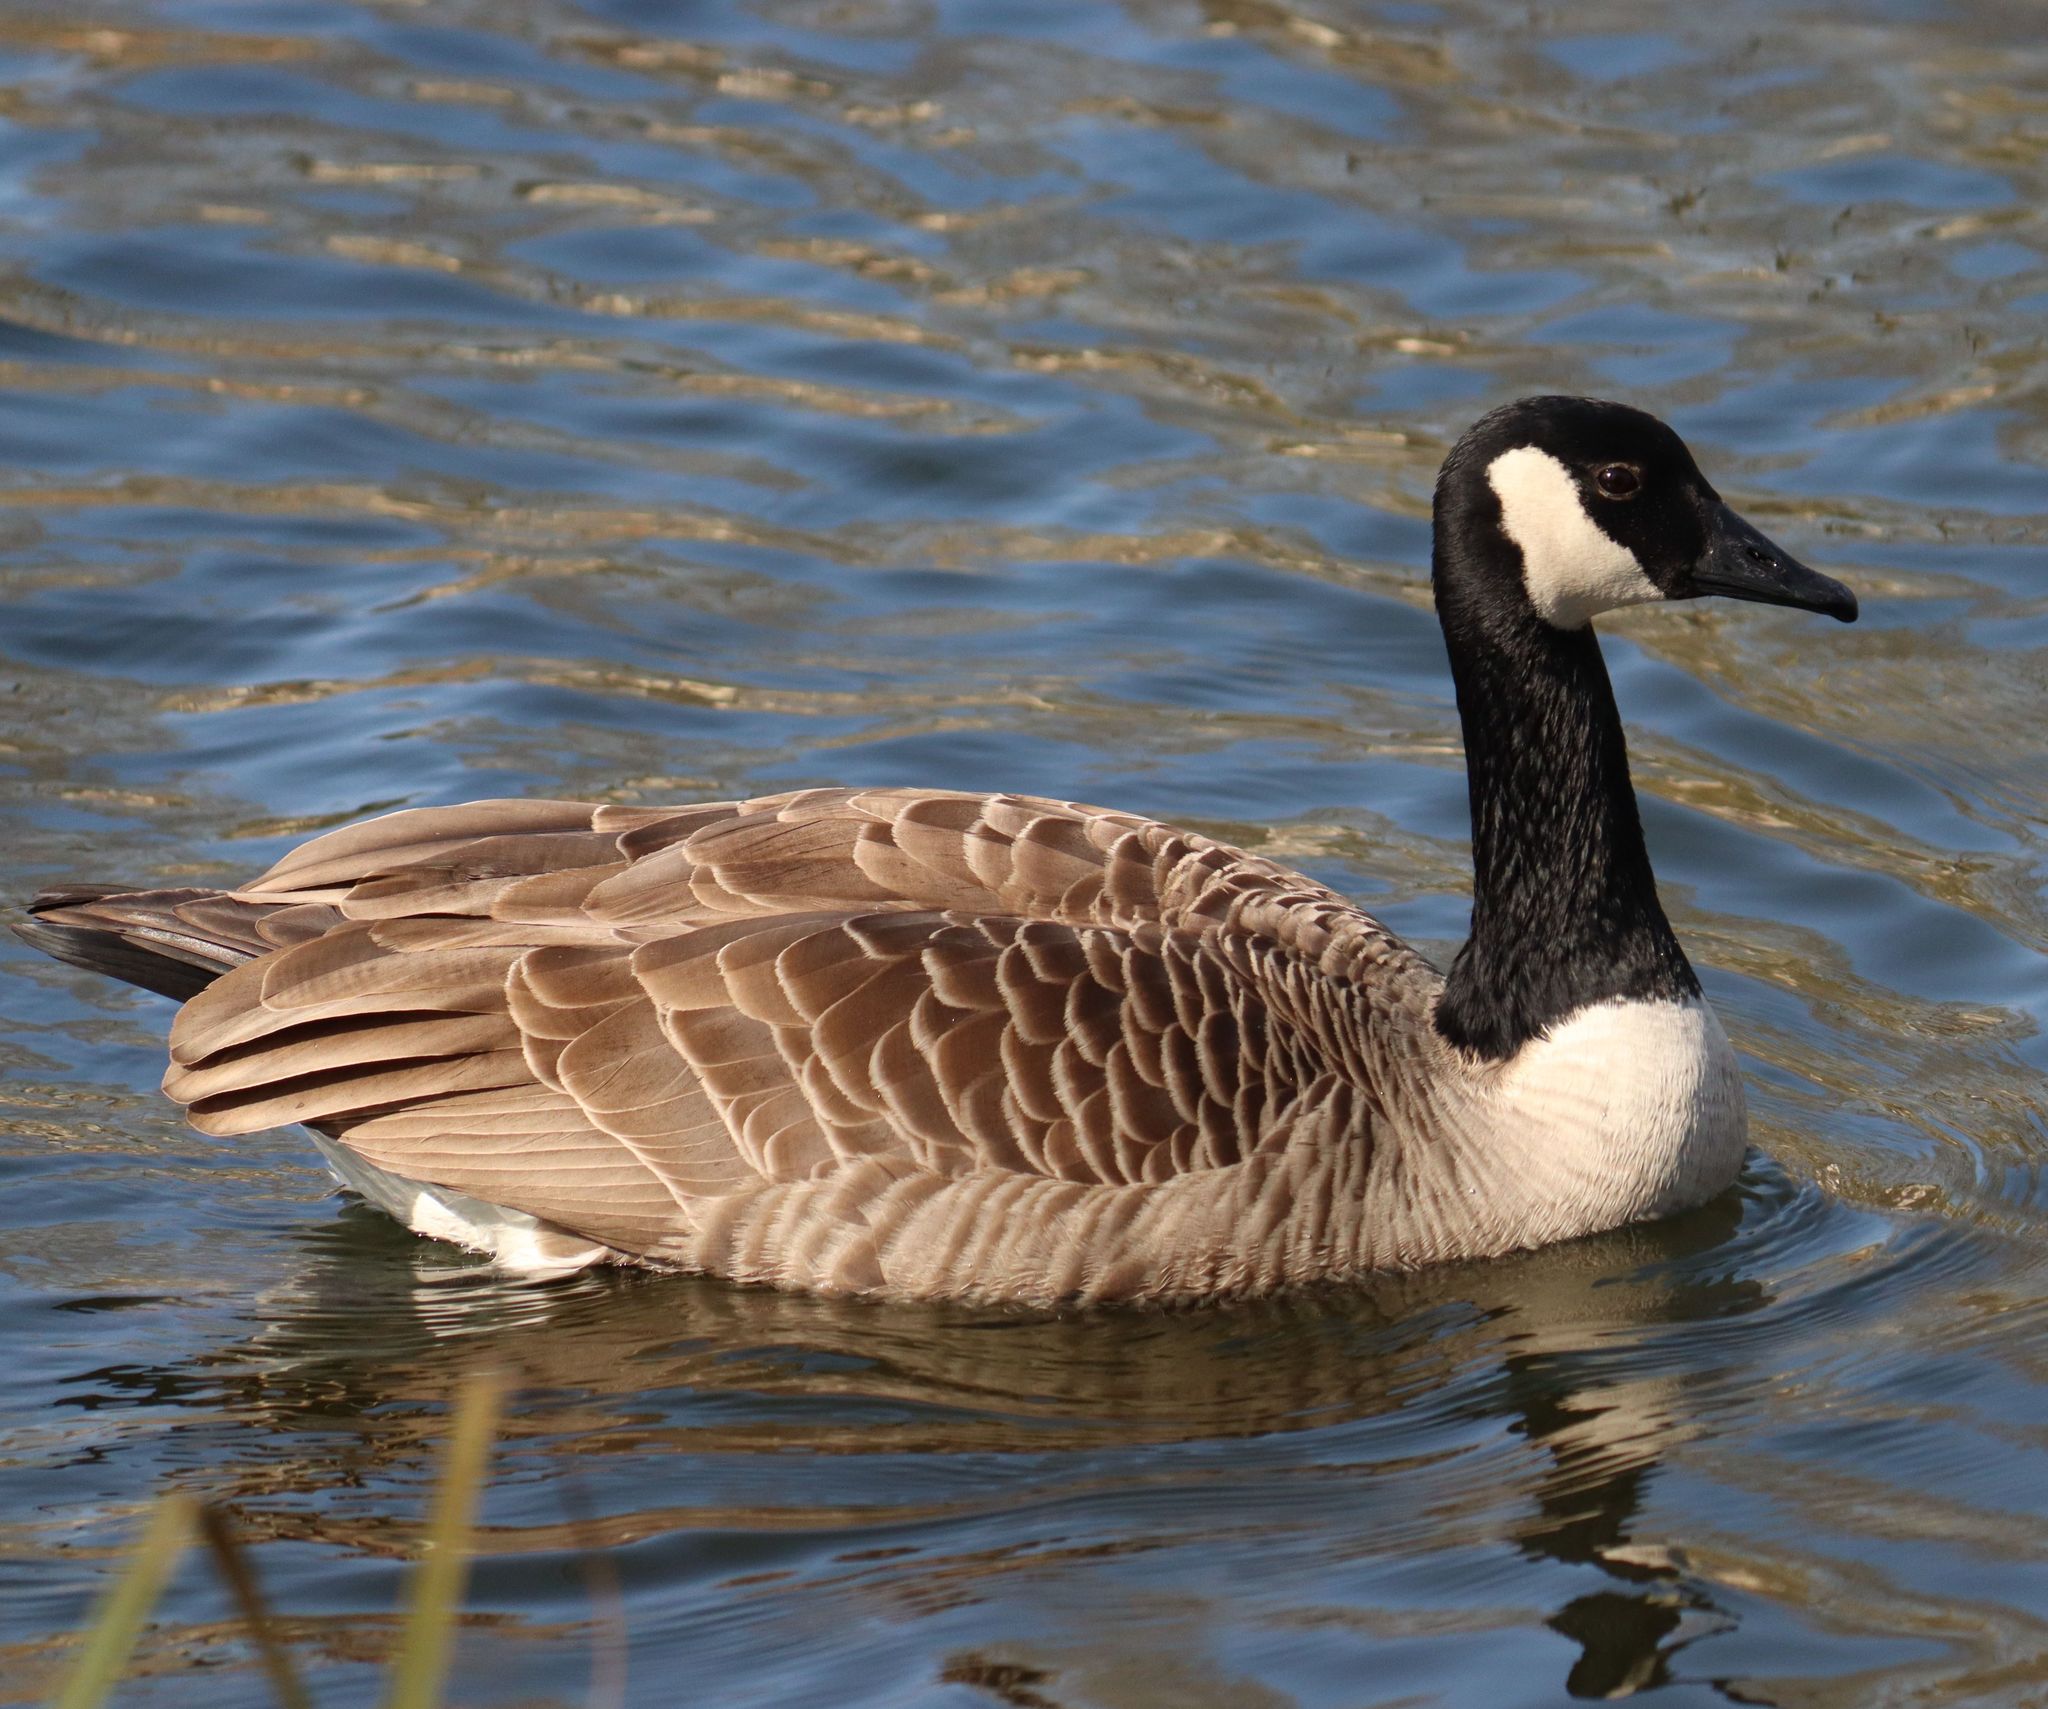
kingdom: Animalia
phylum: Chordata
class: Aves
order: Anseriformes
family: Anatidae
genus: Branta
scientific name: Branta canadensis
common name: Canada goose
